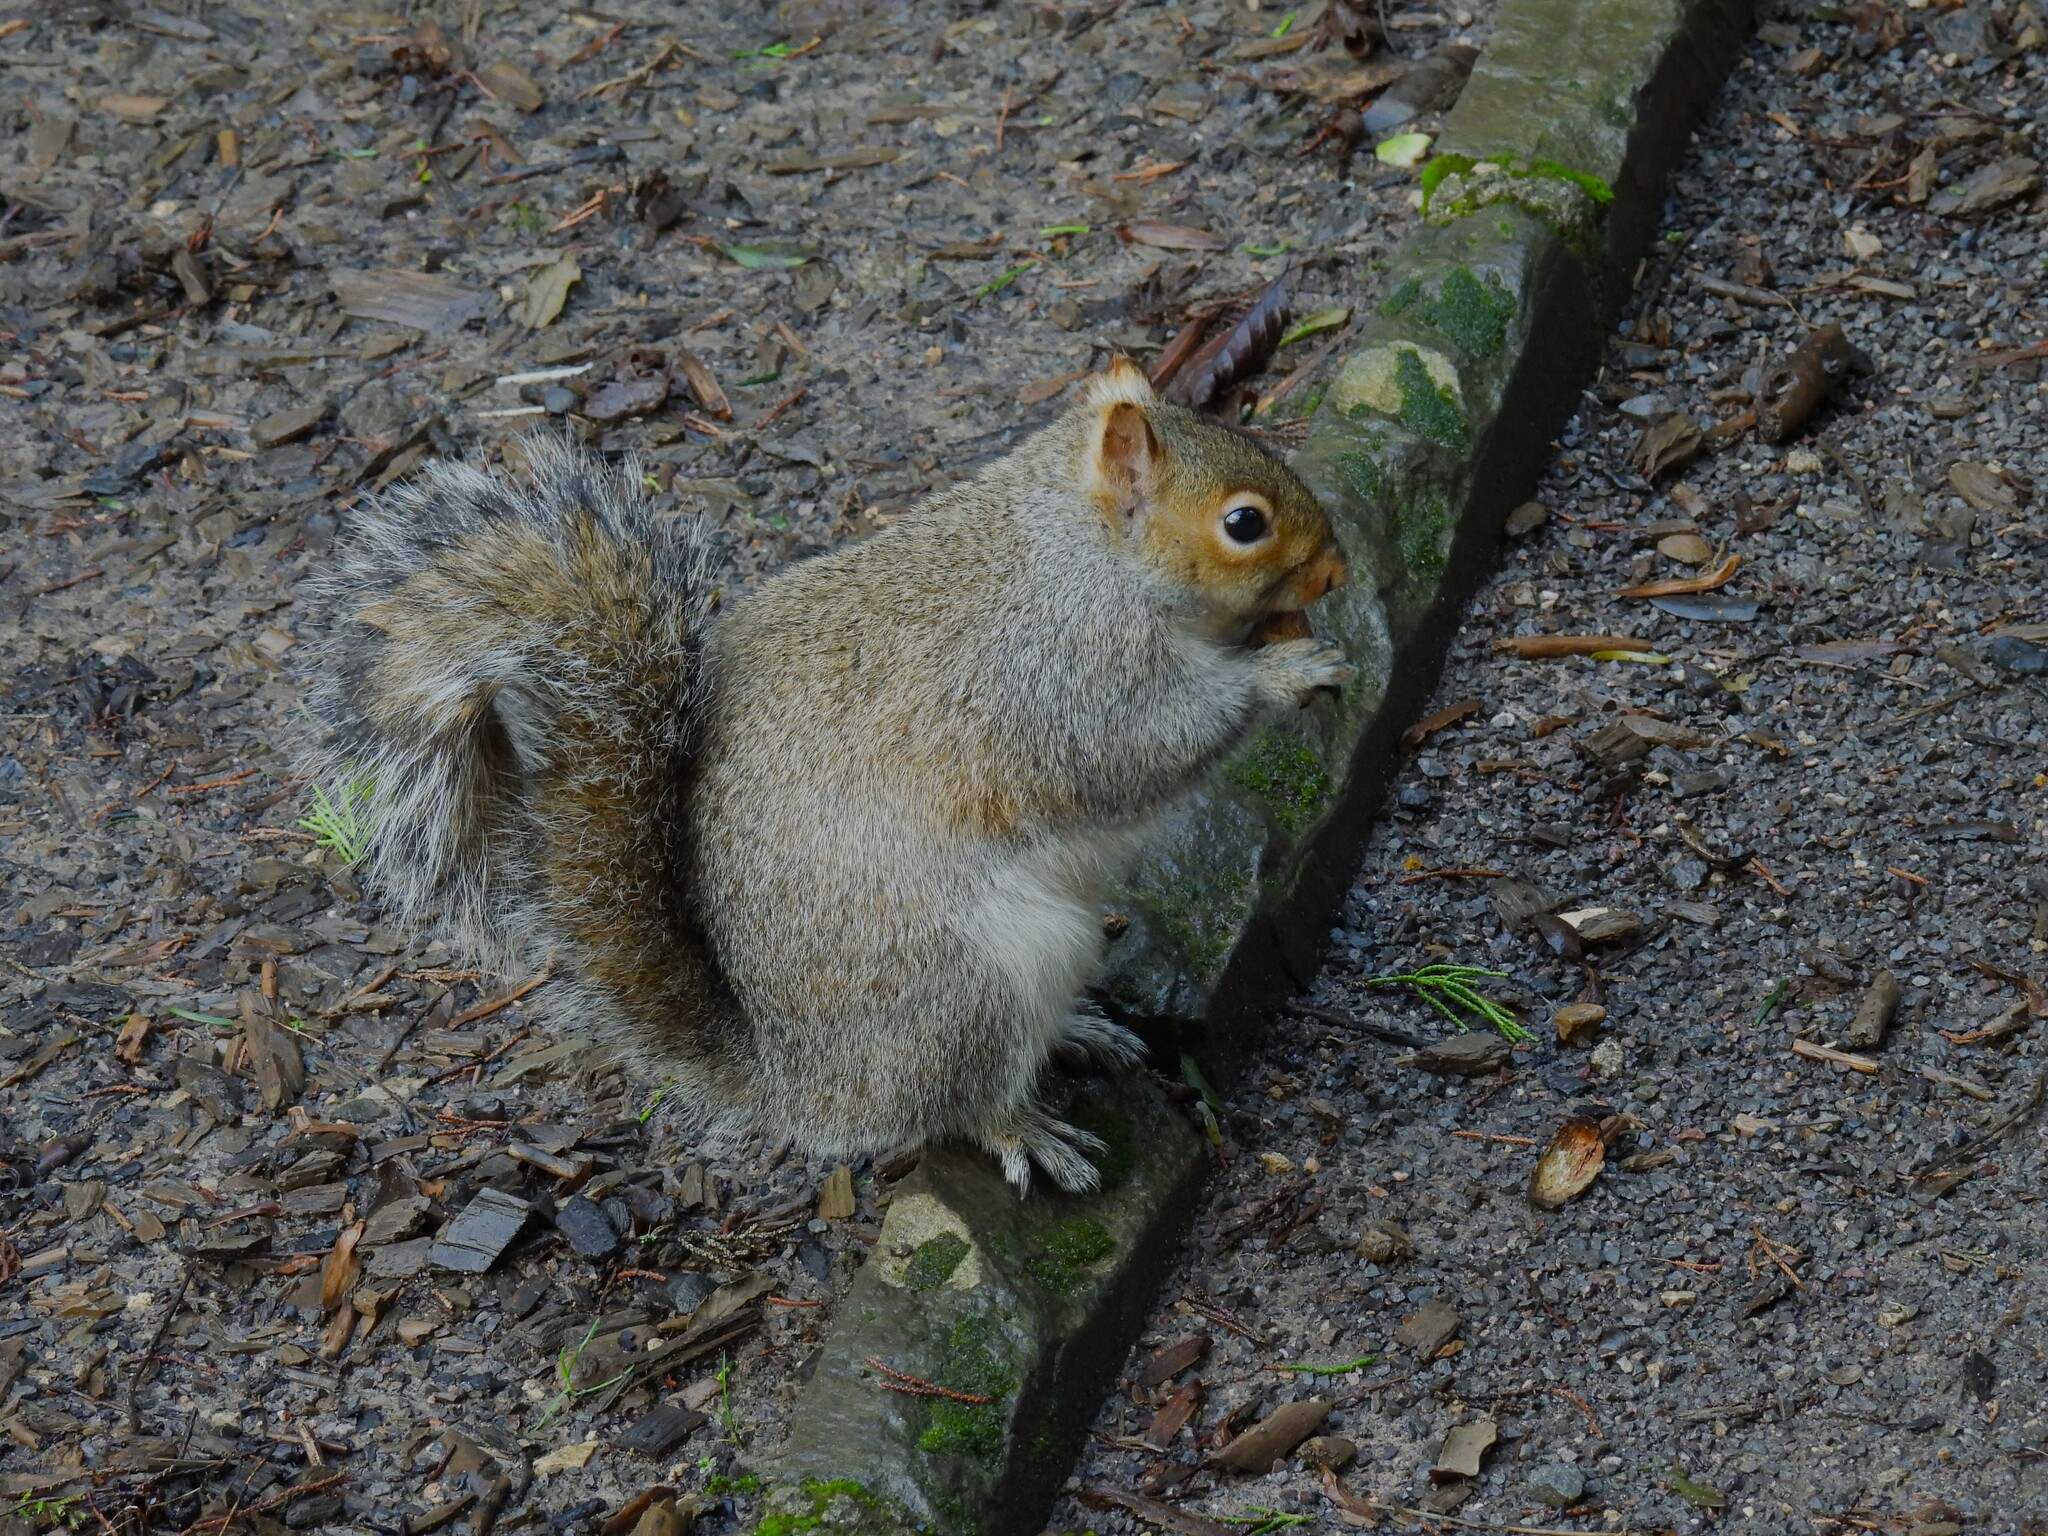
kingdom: Animalia
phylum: Chordata
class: Mammalia
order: Rodentia
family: Sciuridae
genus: Sciurus
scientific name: Sciurus carolinensis
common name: Eastern gray squirrel
